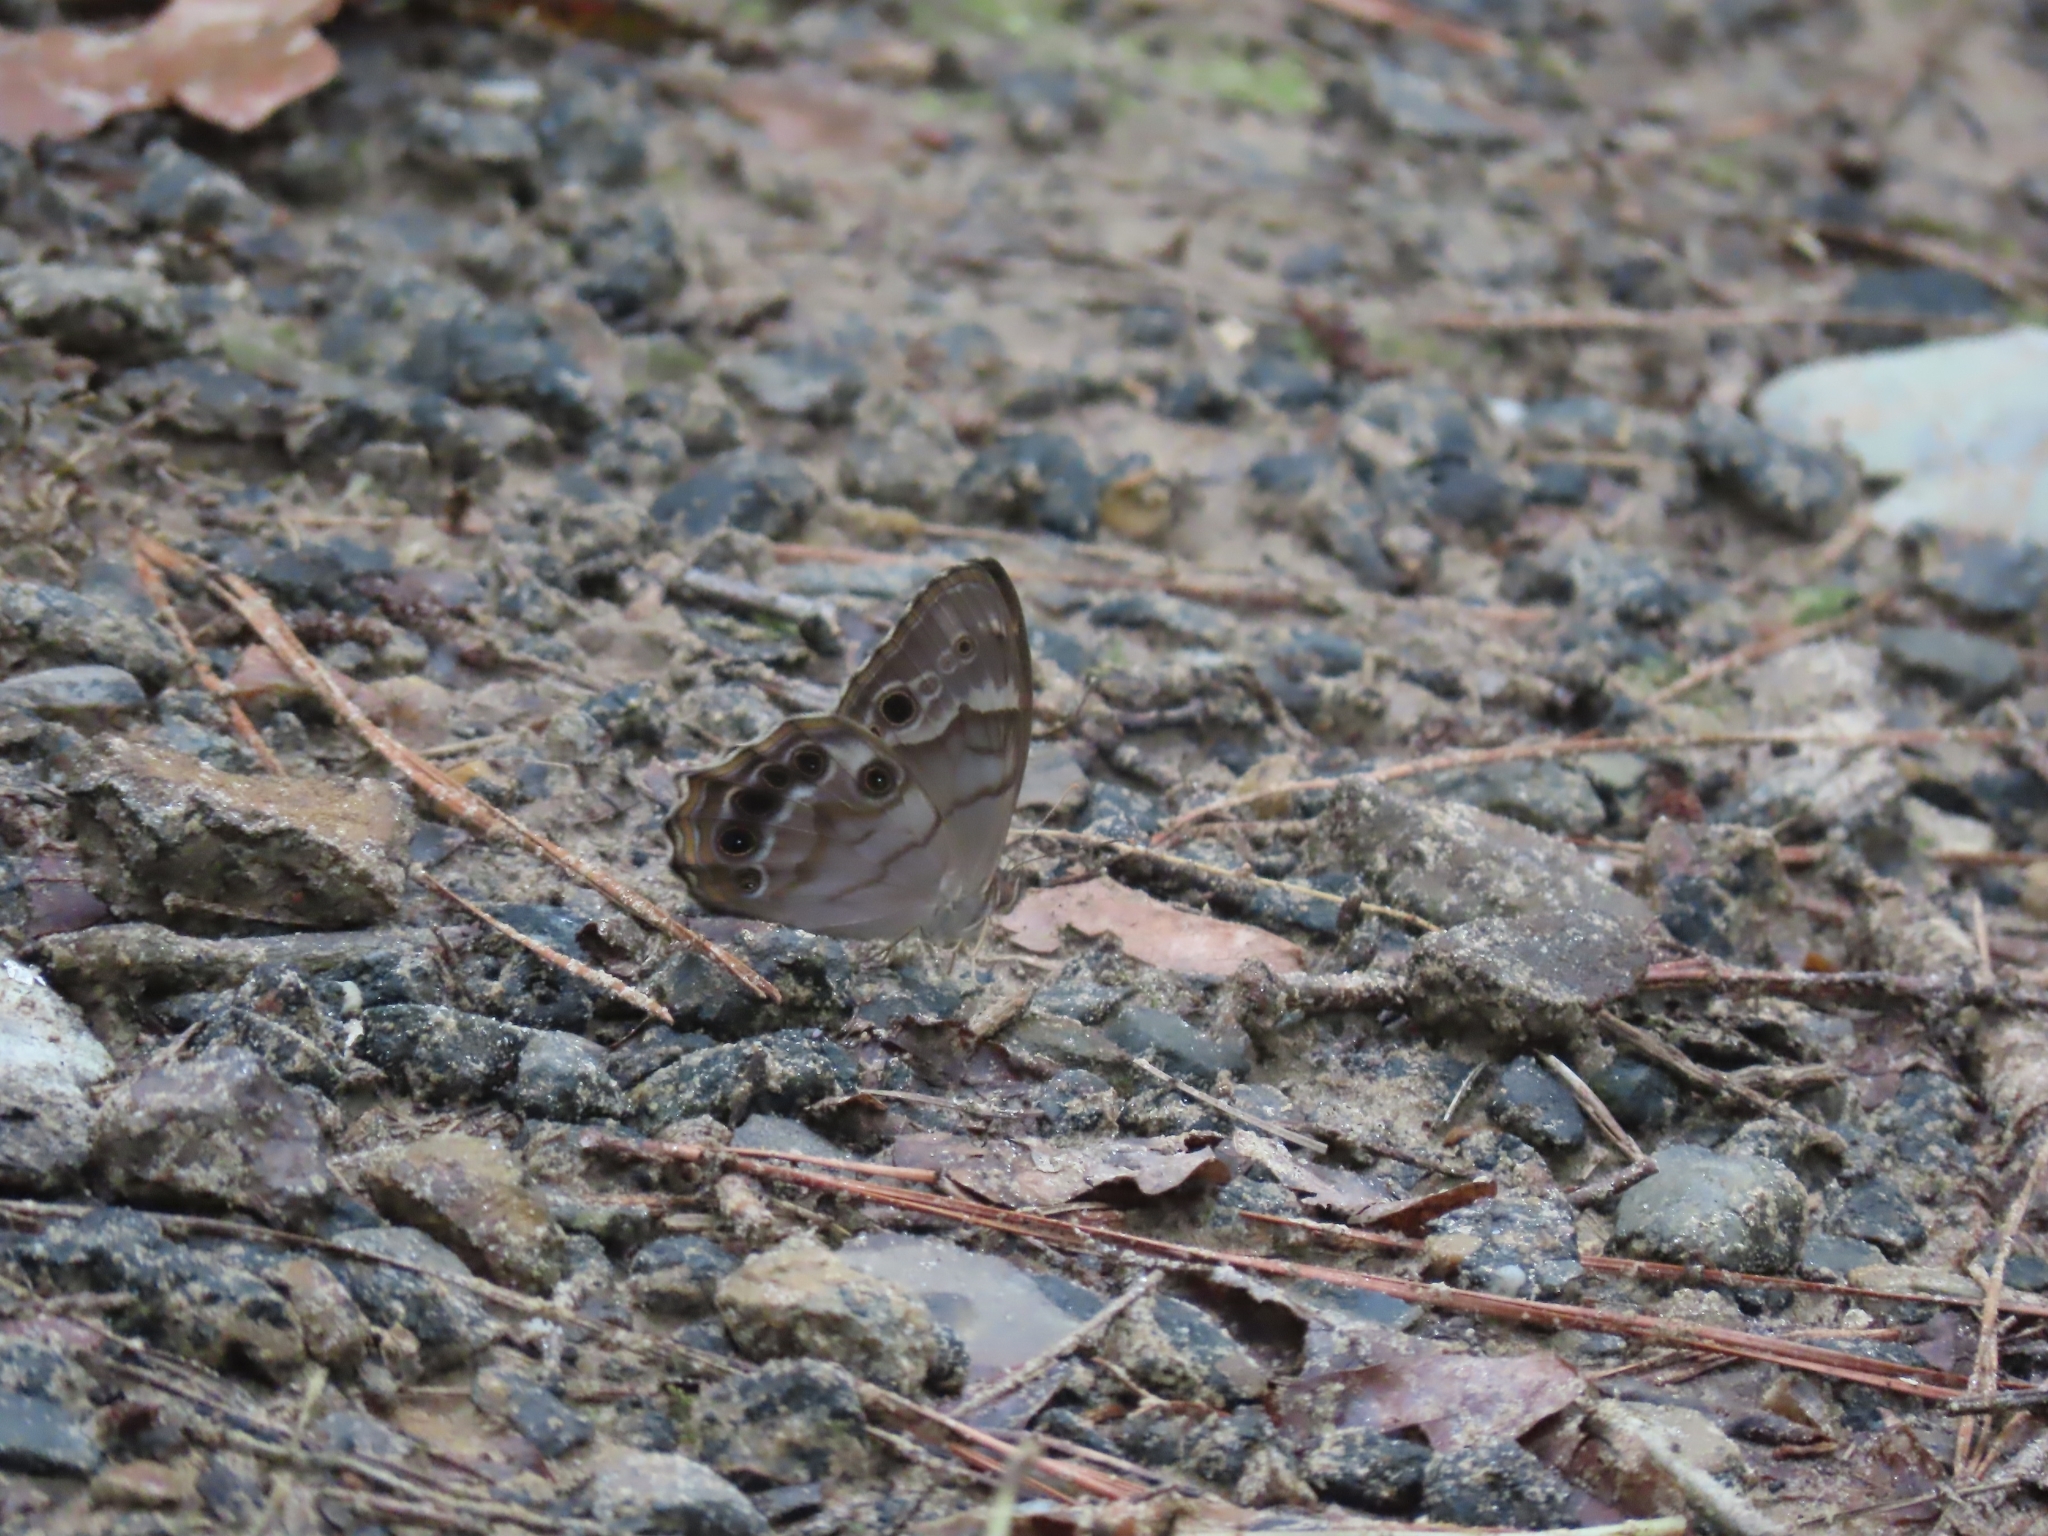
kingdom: Animalia
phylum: Arthropoda
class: Insecta
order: Lepidoptera
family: Nymphalidae
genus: Enodia
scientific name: Enodia portlandia
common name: Southern pearly-eye
